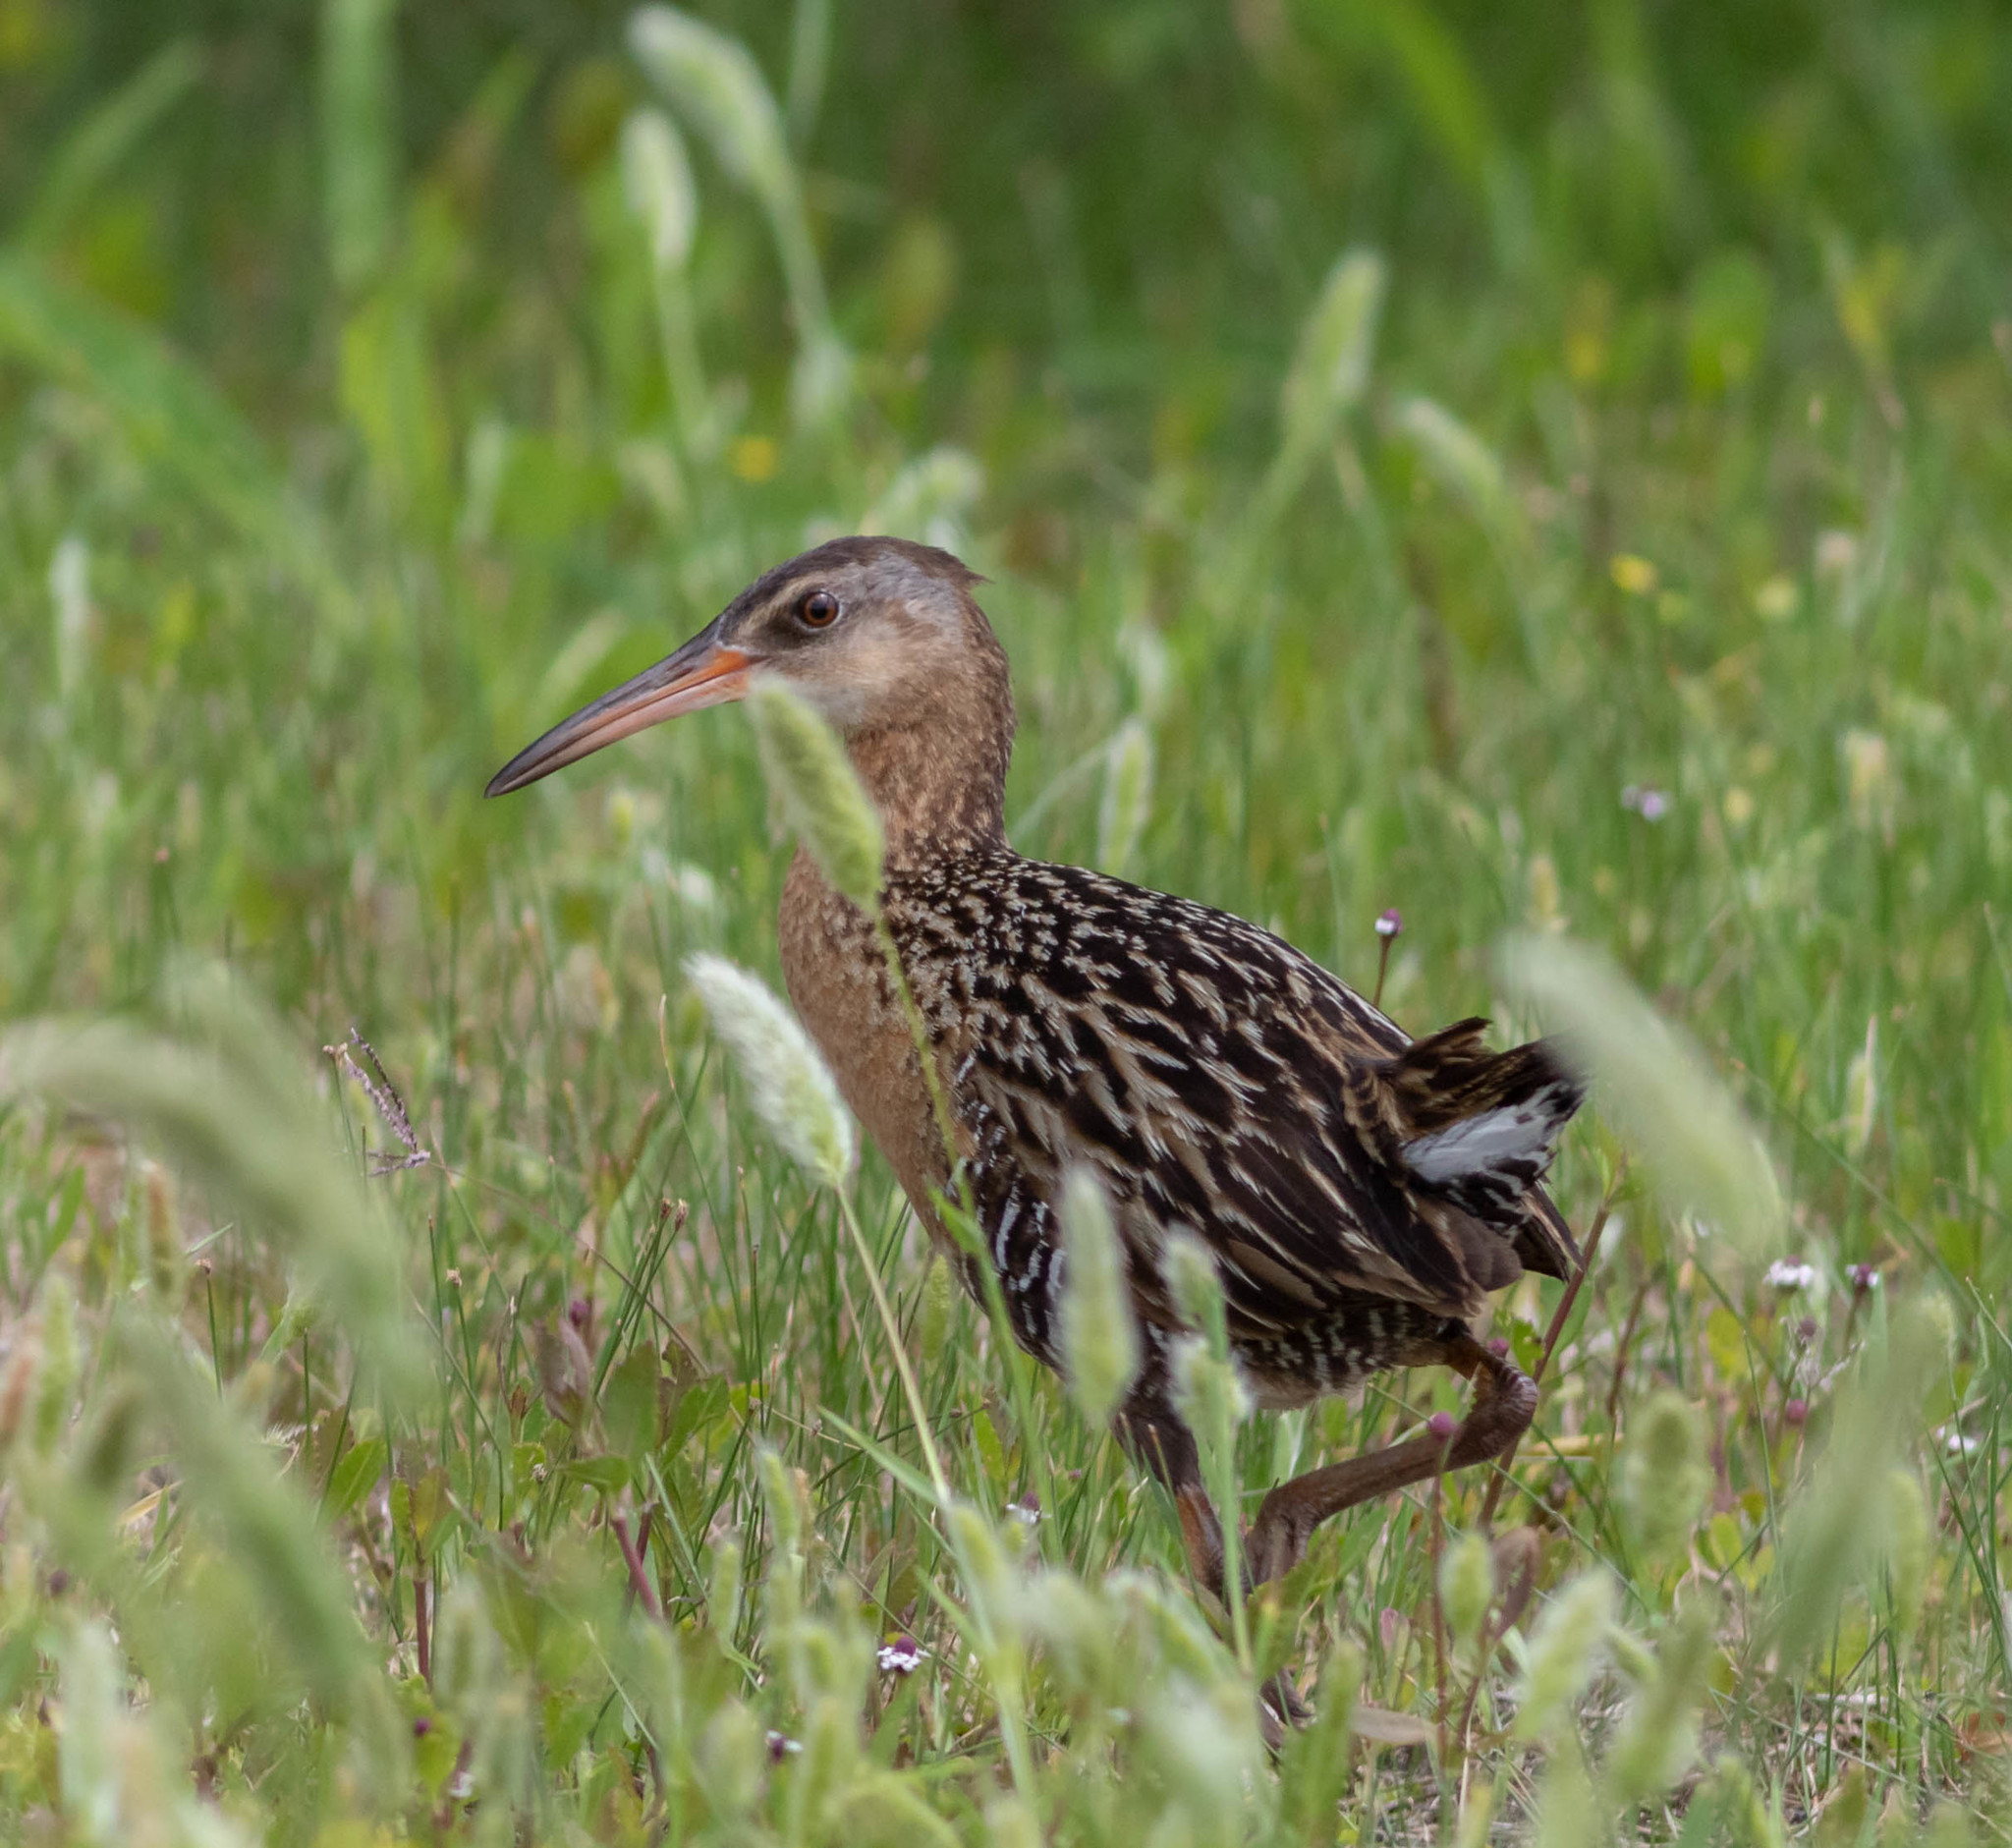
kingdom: Animalia
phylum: Chordata
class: Aves
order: Gruiformes
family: Rallidae
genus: Rallus
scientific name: Rallus elegans
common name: King rail
